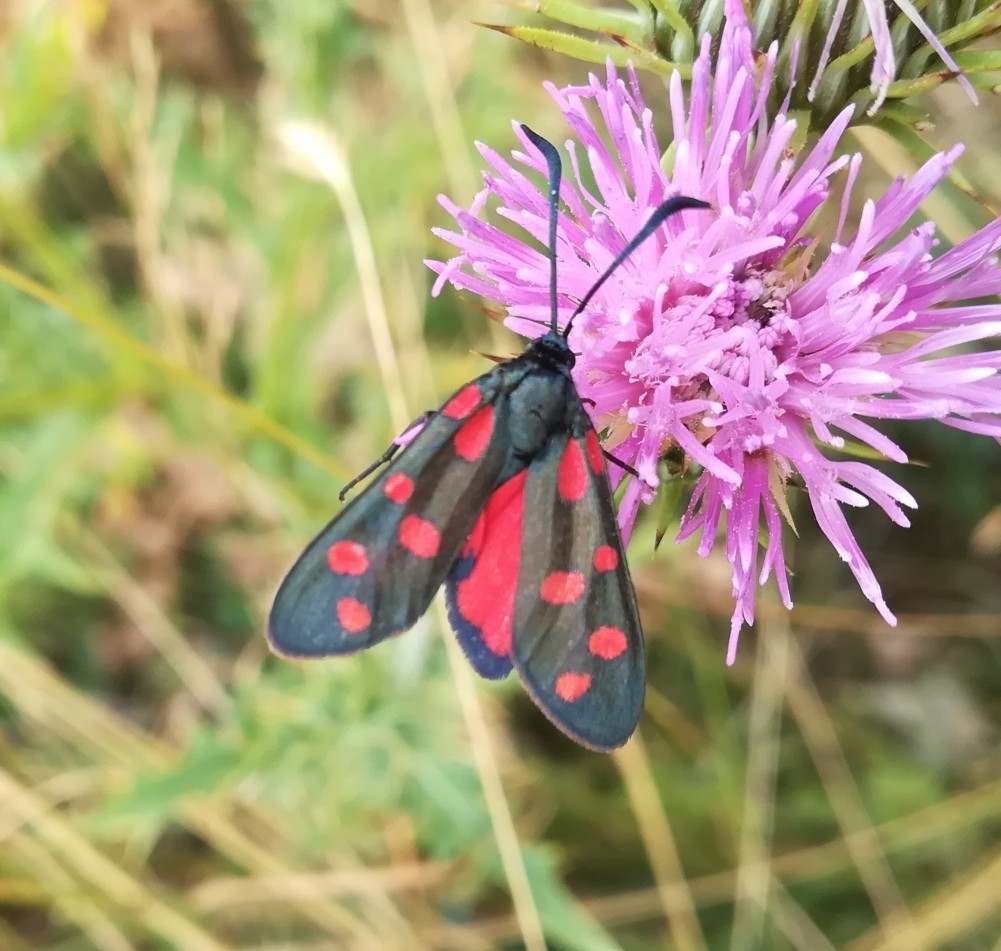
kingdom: Animalia
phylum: Arthropoda
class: Insecta
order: Lepidoptera
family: Zygaenidae
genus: Zygaena
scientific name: Zygaena transalpina
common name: Southern six spot burnet
